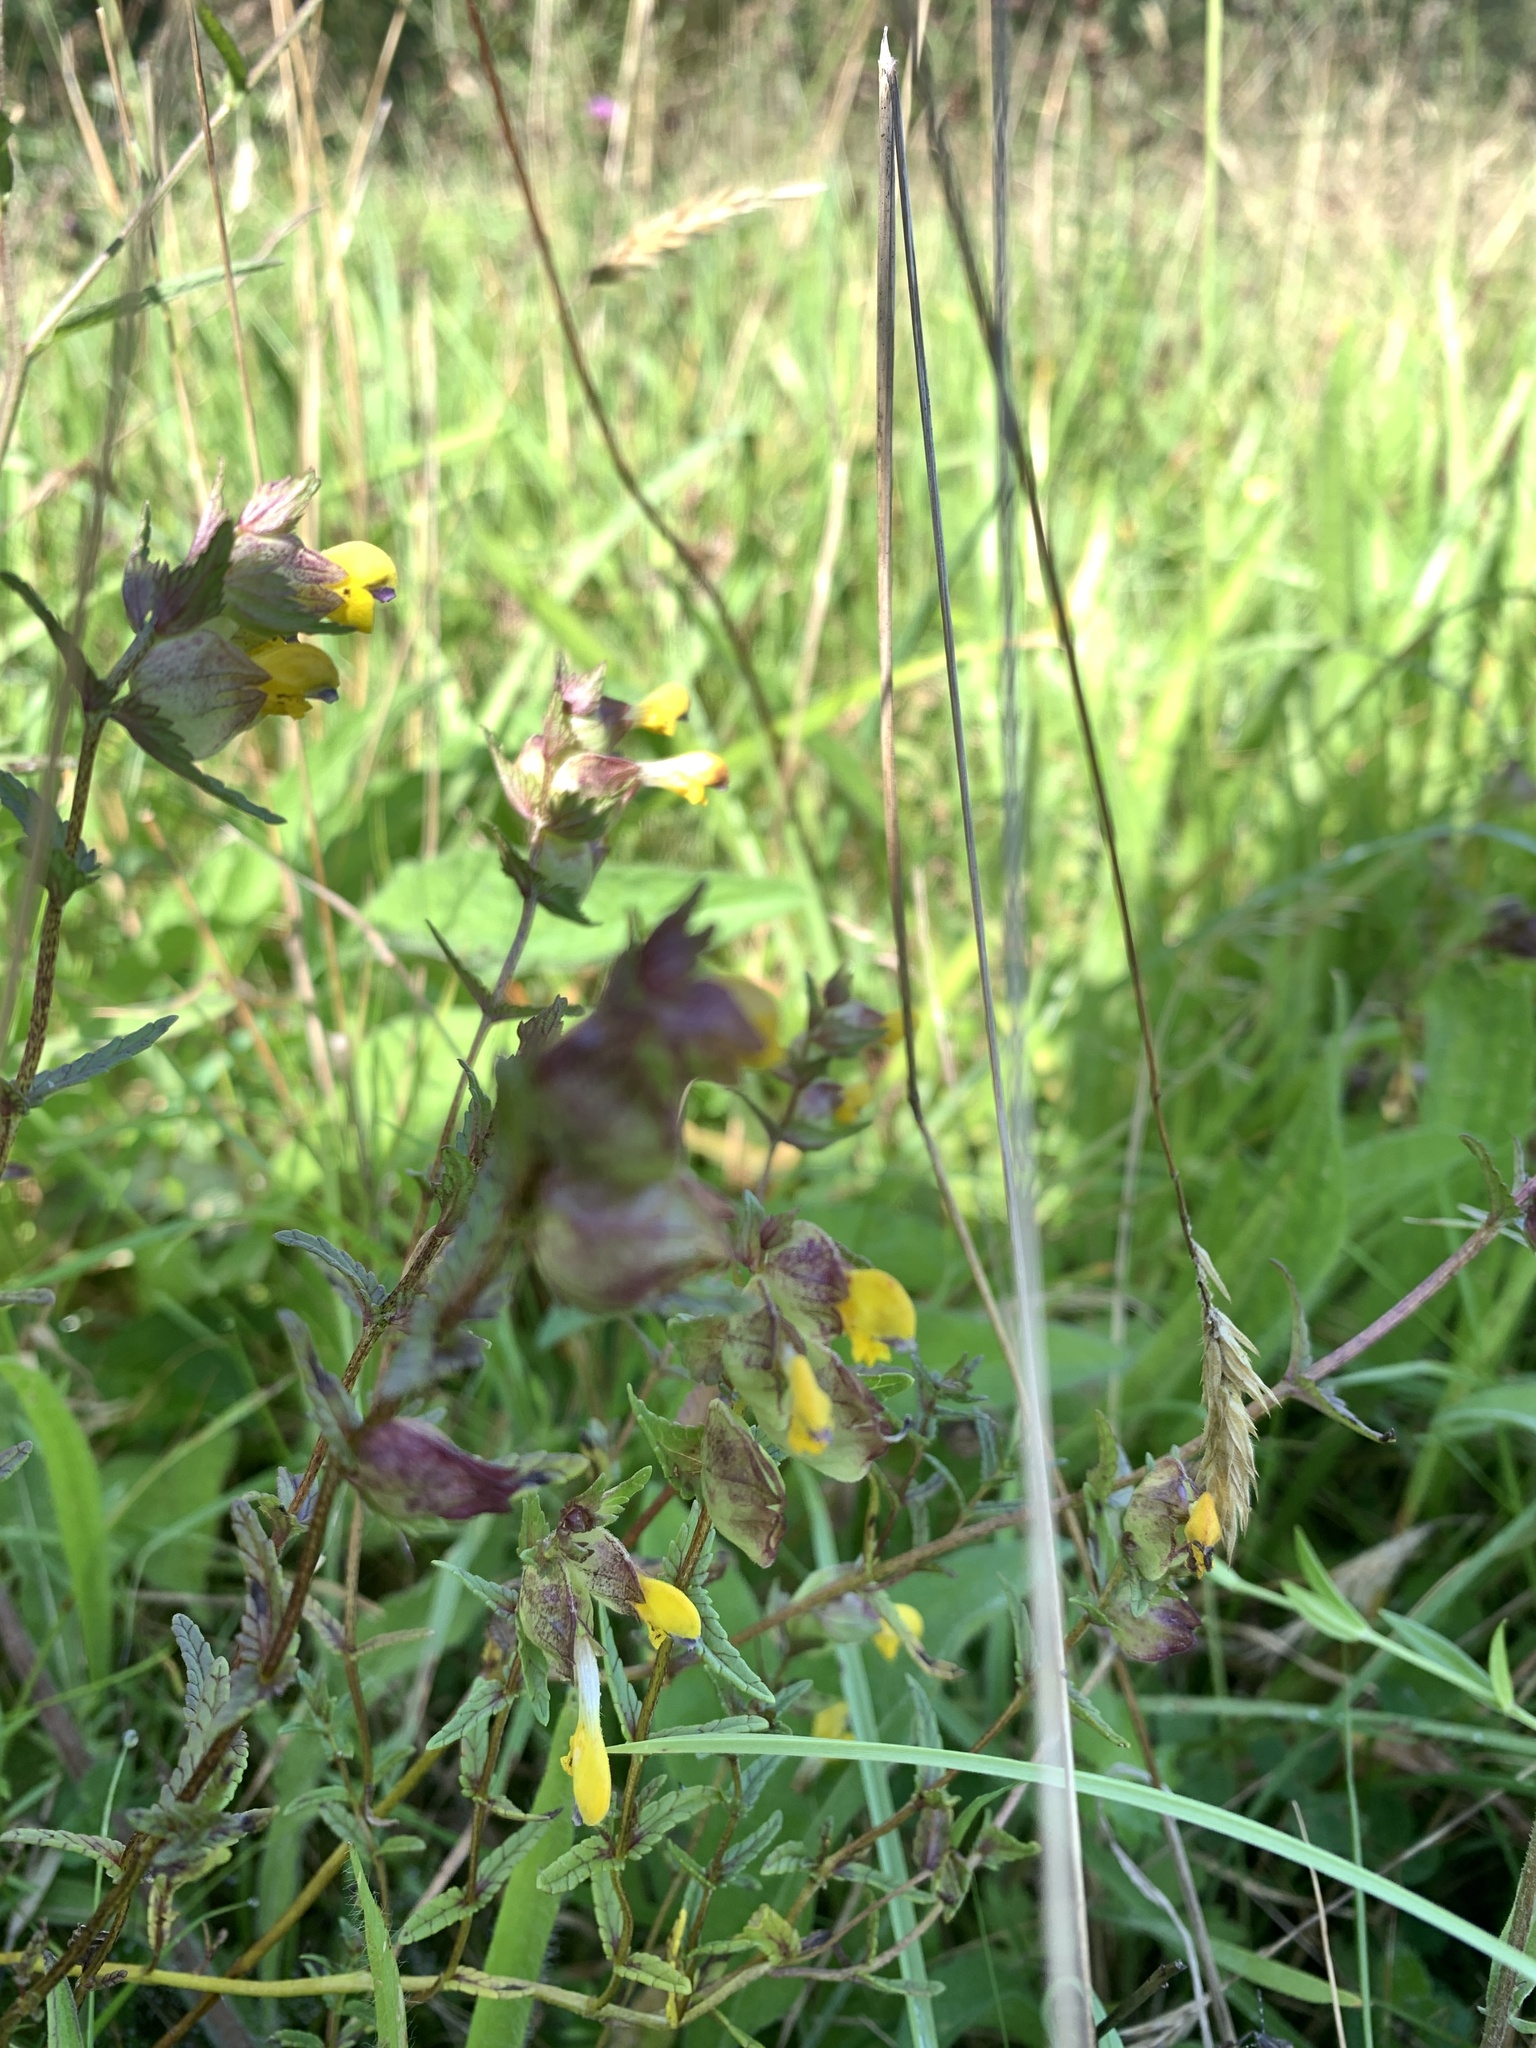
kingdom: Plantae
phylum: Tracheophyta
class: Magnoliopsida
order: Lamiales
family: Orobanchaceae
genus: Rhinanthus
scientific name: Rhinanthus minor
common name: Yellow-rattle
